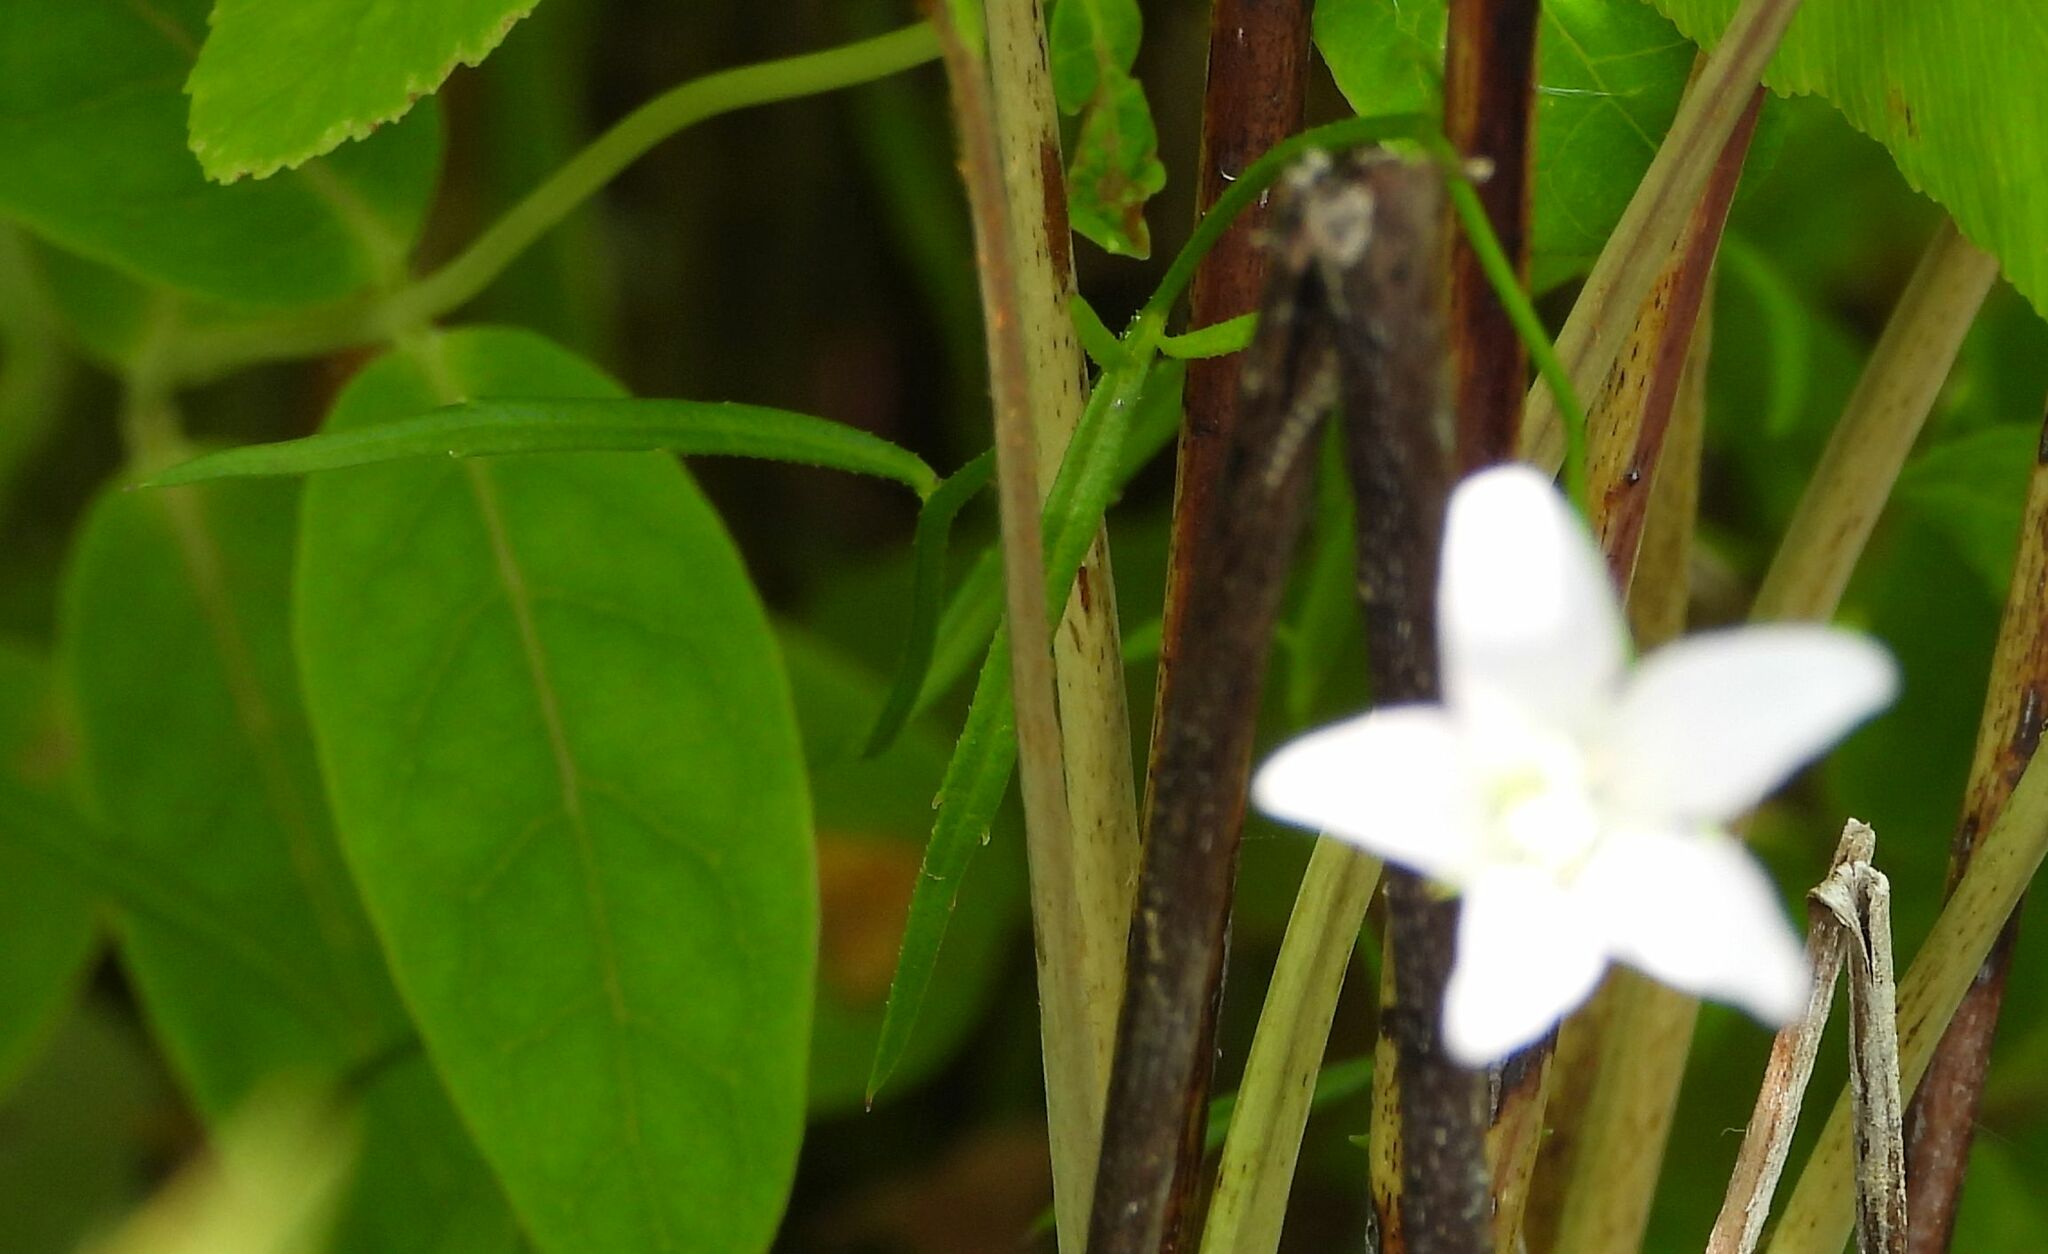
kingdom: Plantae
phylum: Tracheophyta
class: Magnoliopsida
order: Asterales
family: Campanulaceae
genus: Palustricodon
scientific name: Palustricodon aparinoides
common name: Bedstraw bellflower
